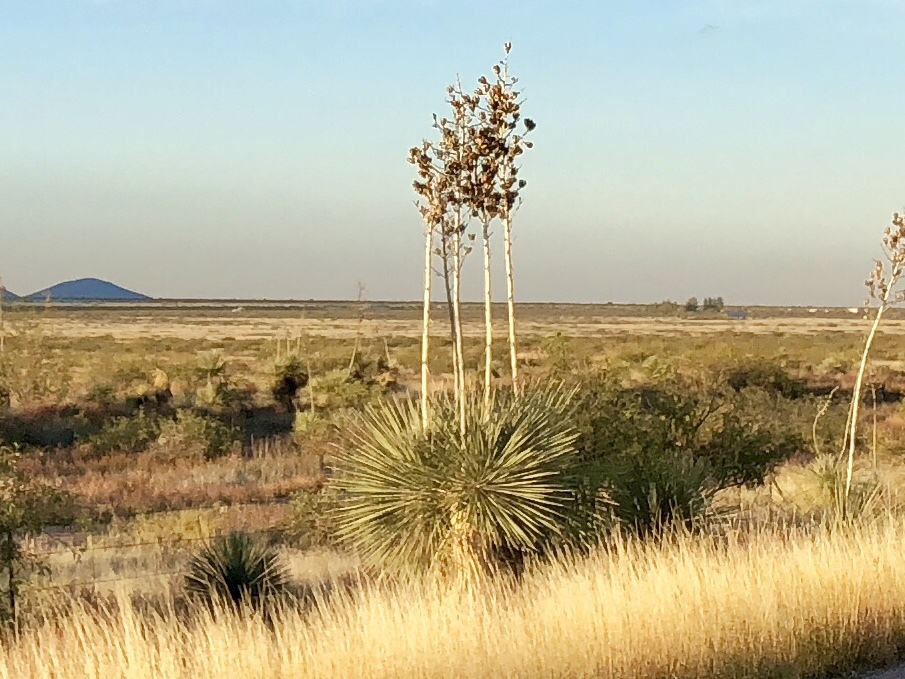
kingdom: Plantae
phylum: Tracheophyta
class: Liliopsida
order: Asparagales
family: Asparagaceae
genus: Yucca
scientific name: Yucca elata
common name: Palmella
